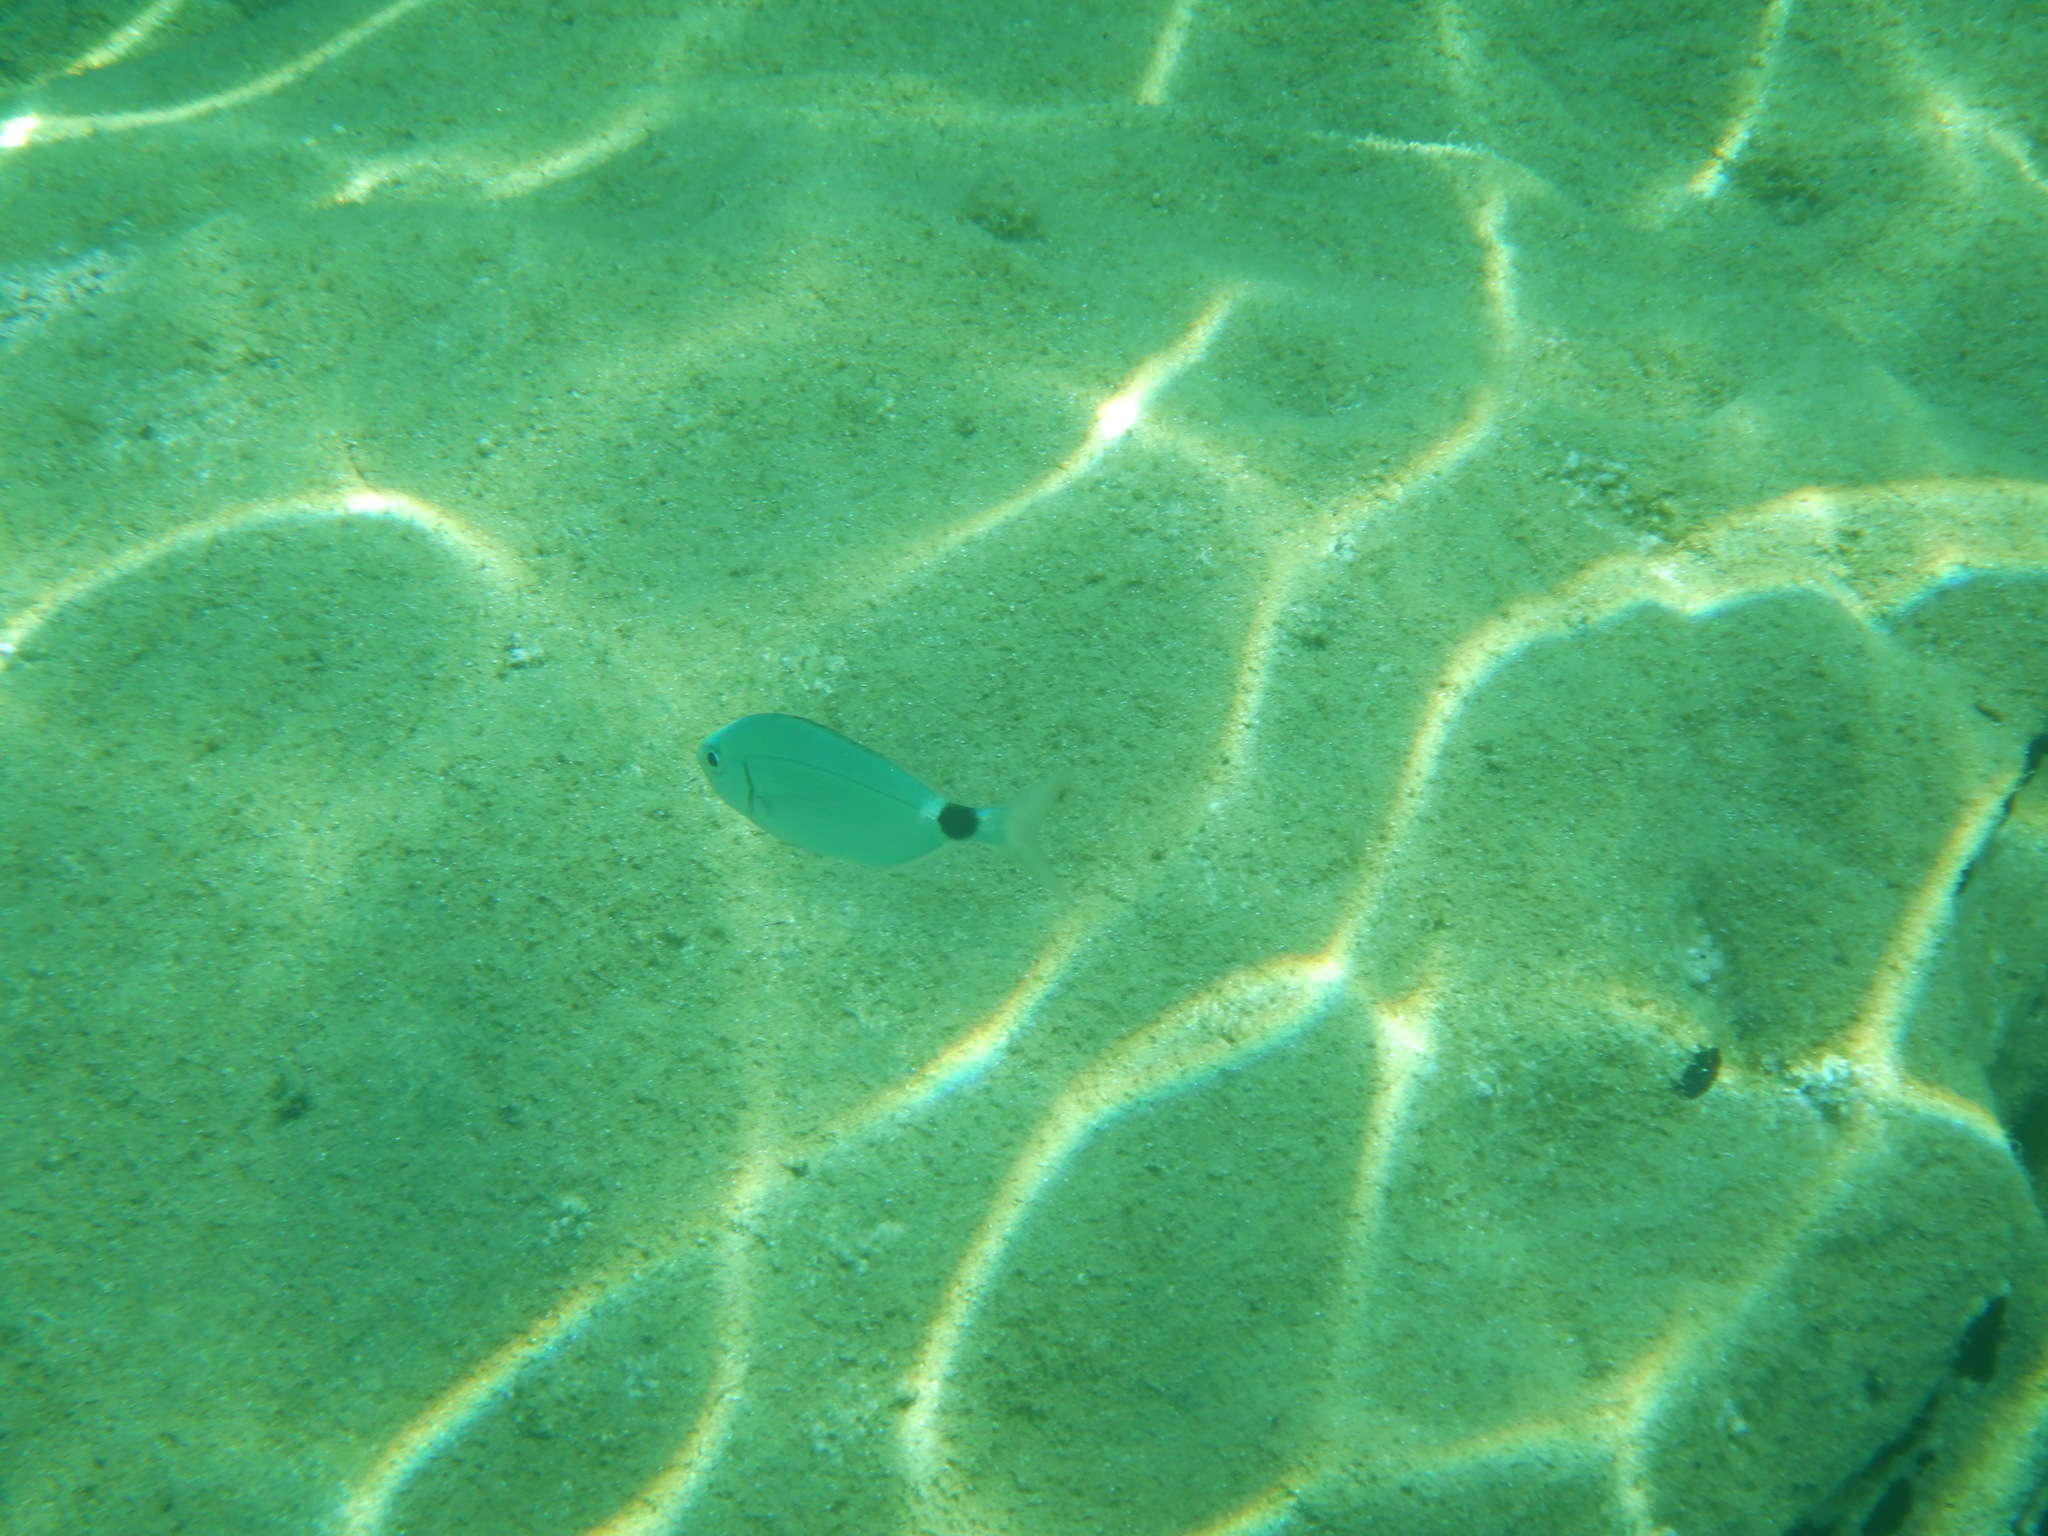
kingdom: Animalia
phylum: Chordata
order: Perciformes
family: Sparidae
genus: Oblada
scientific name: Oblada melanura
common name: Saddled seabream
